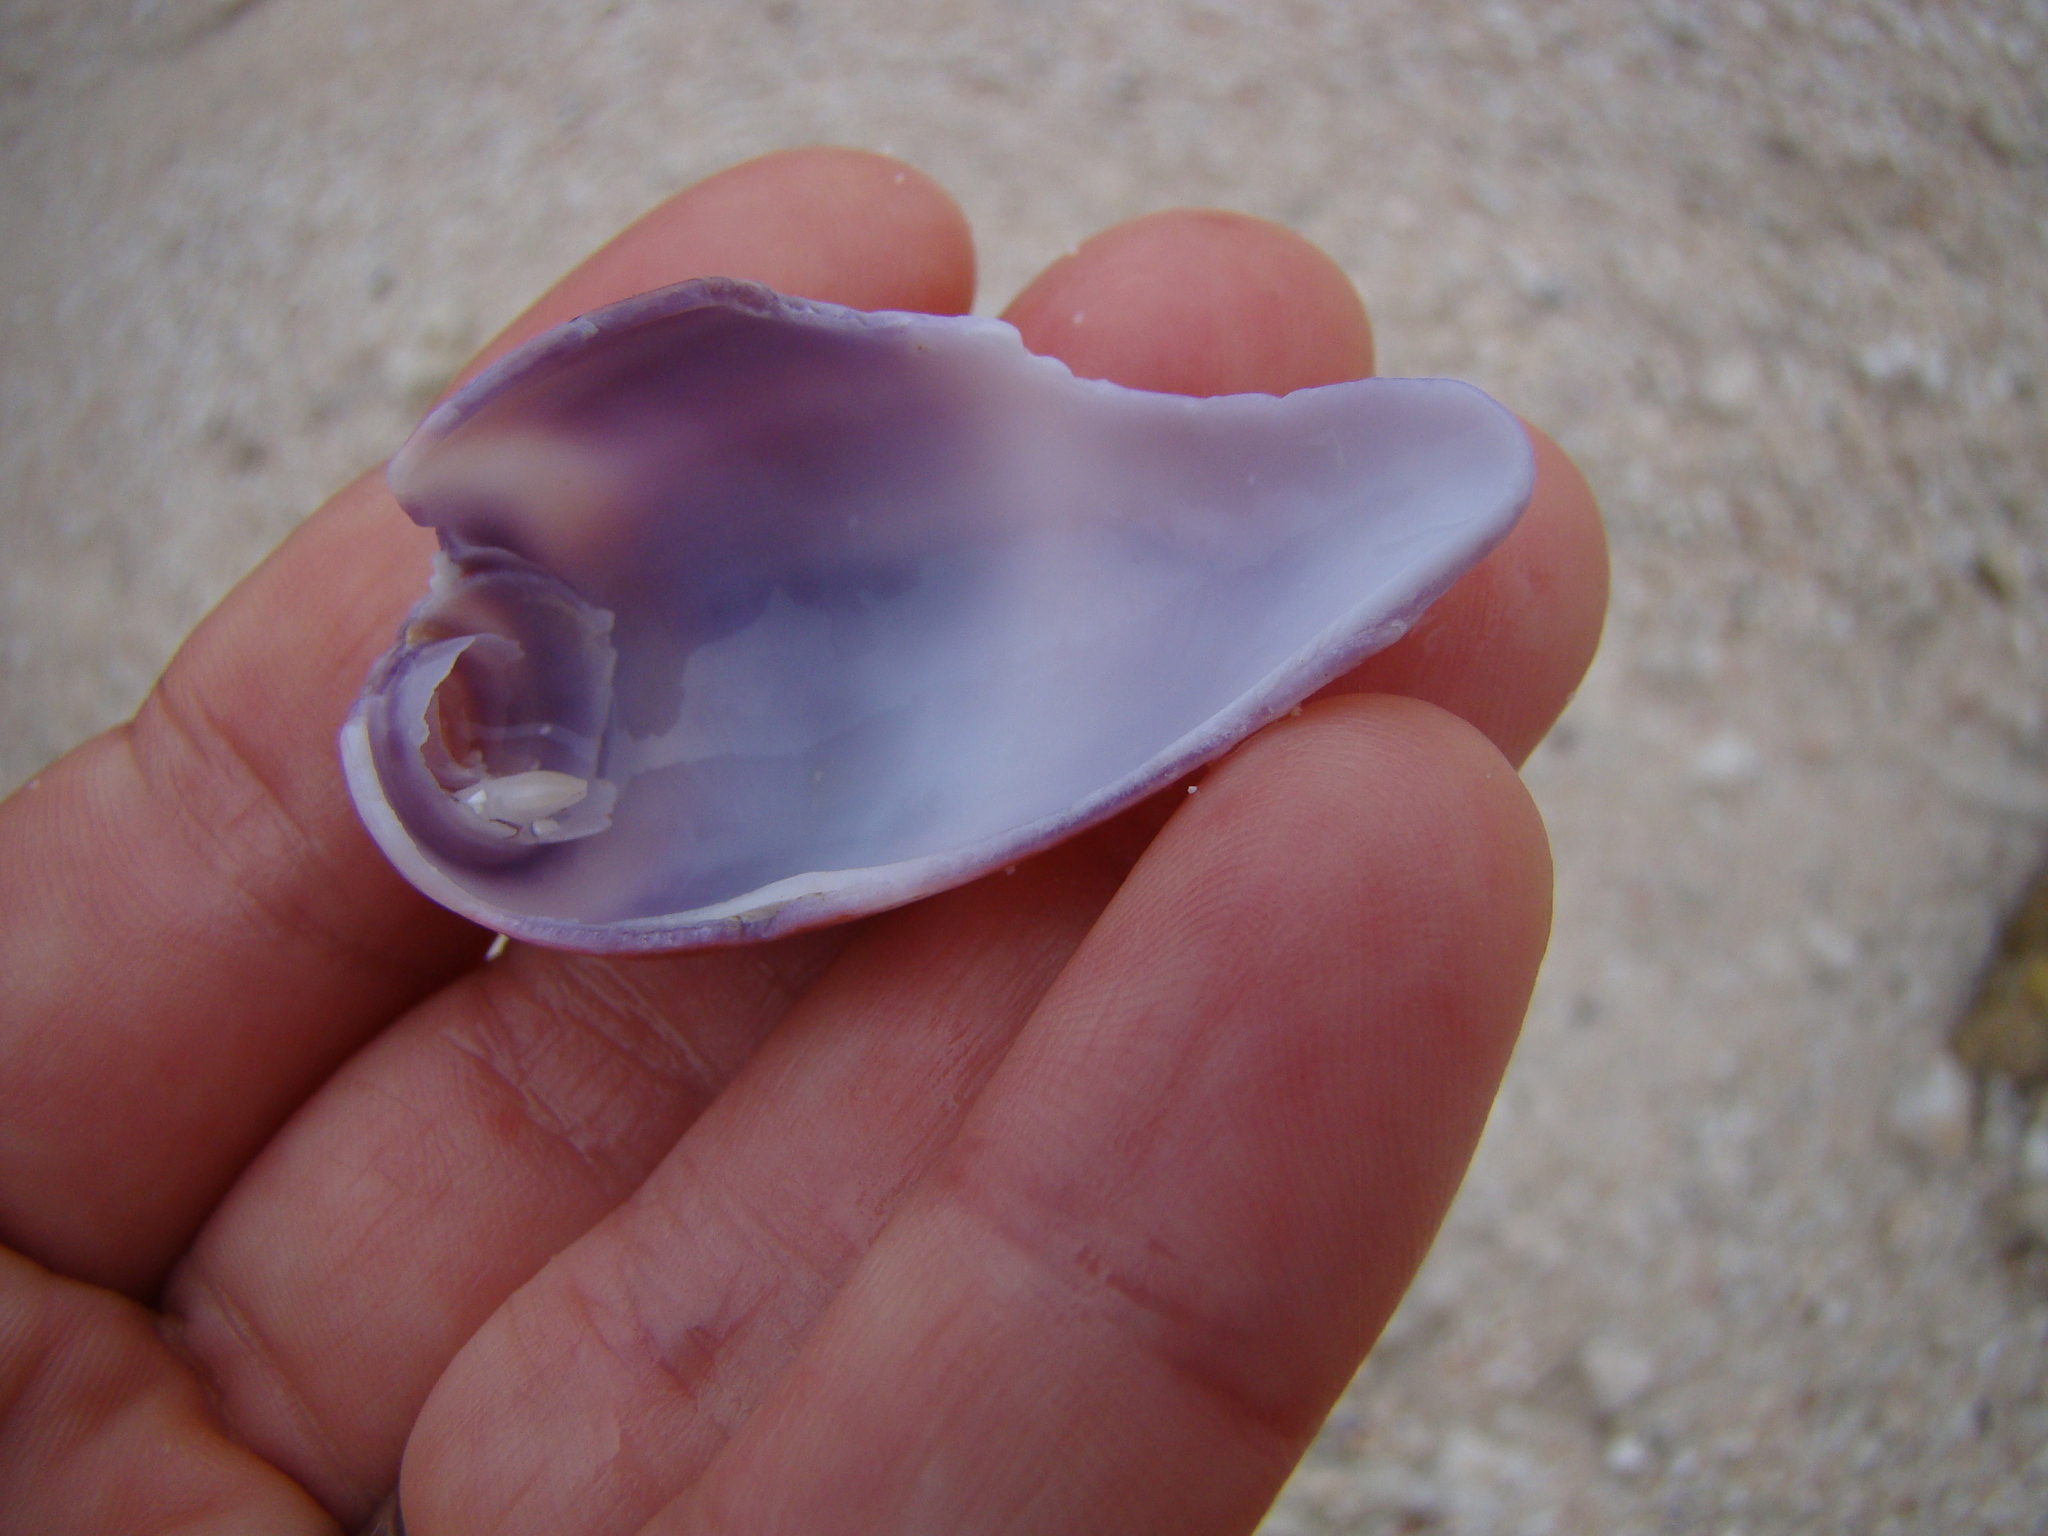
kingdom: Animalia
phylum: Mollusca
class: Gastropoda
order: Neogastropoda
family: Conidae
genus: Conus
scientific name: Conus tulipa
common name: Tulip cone
